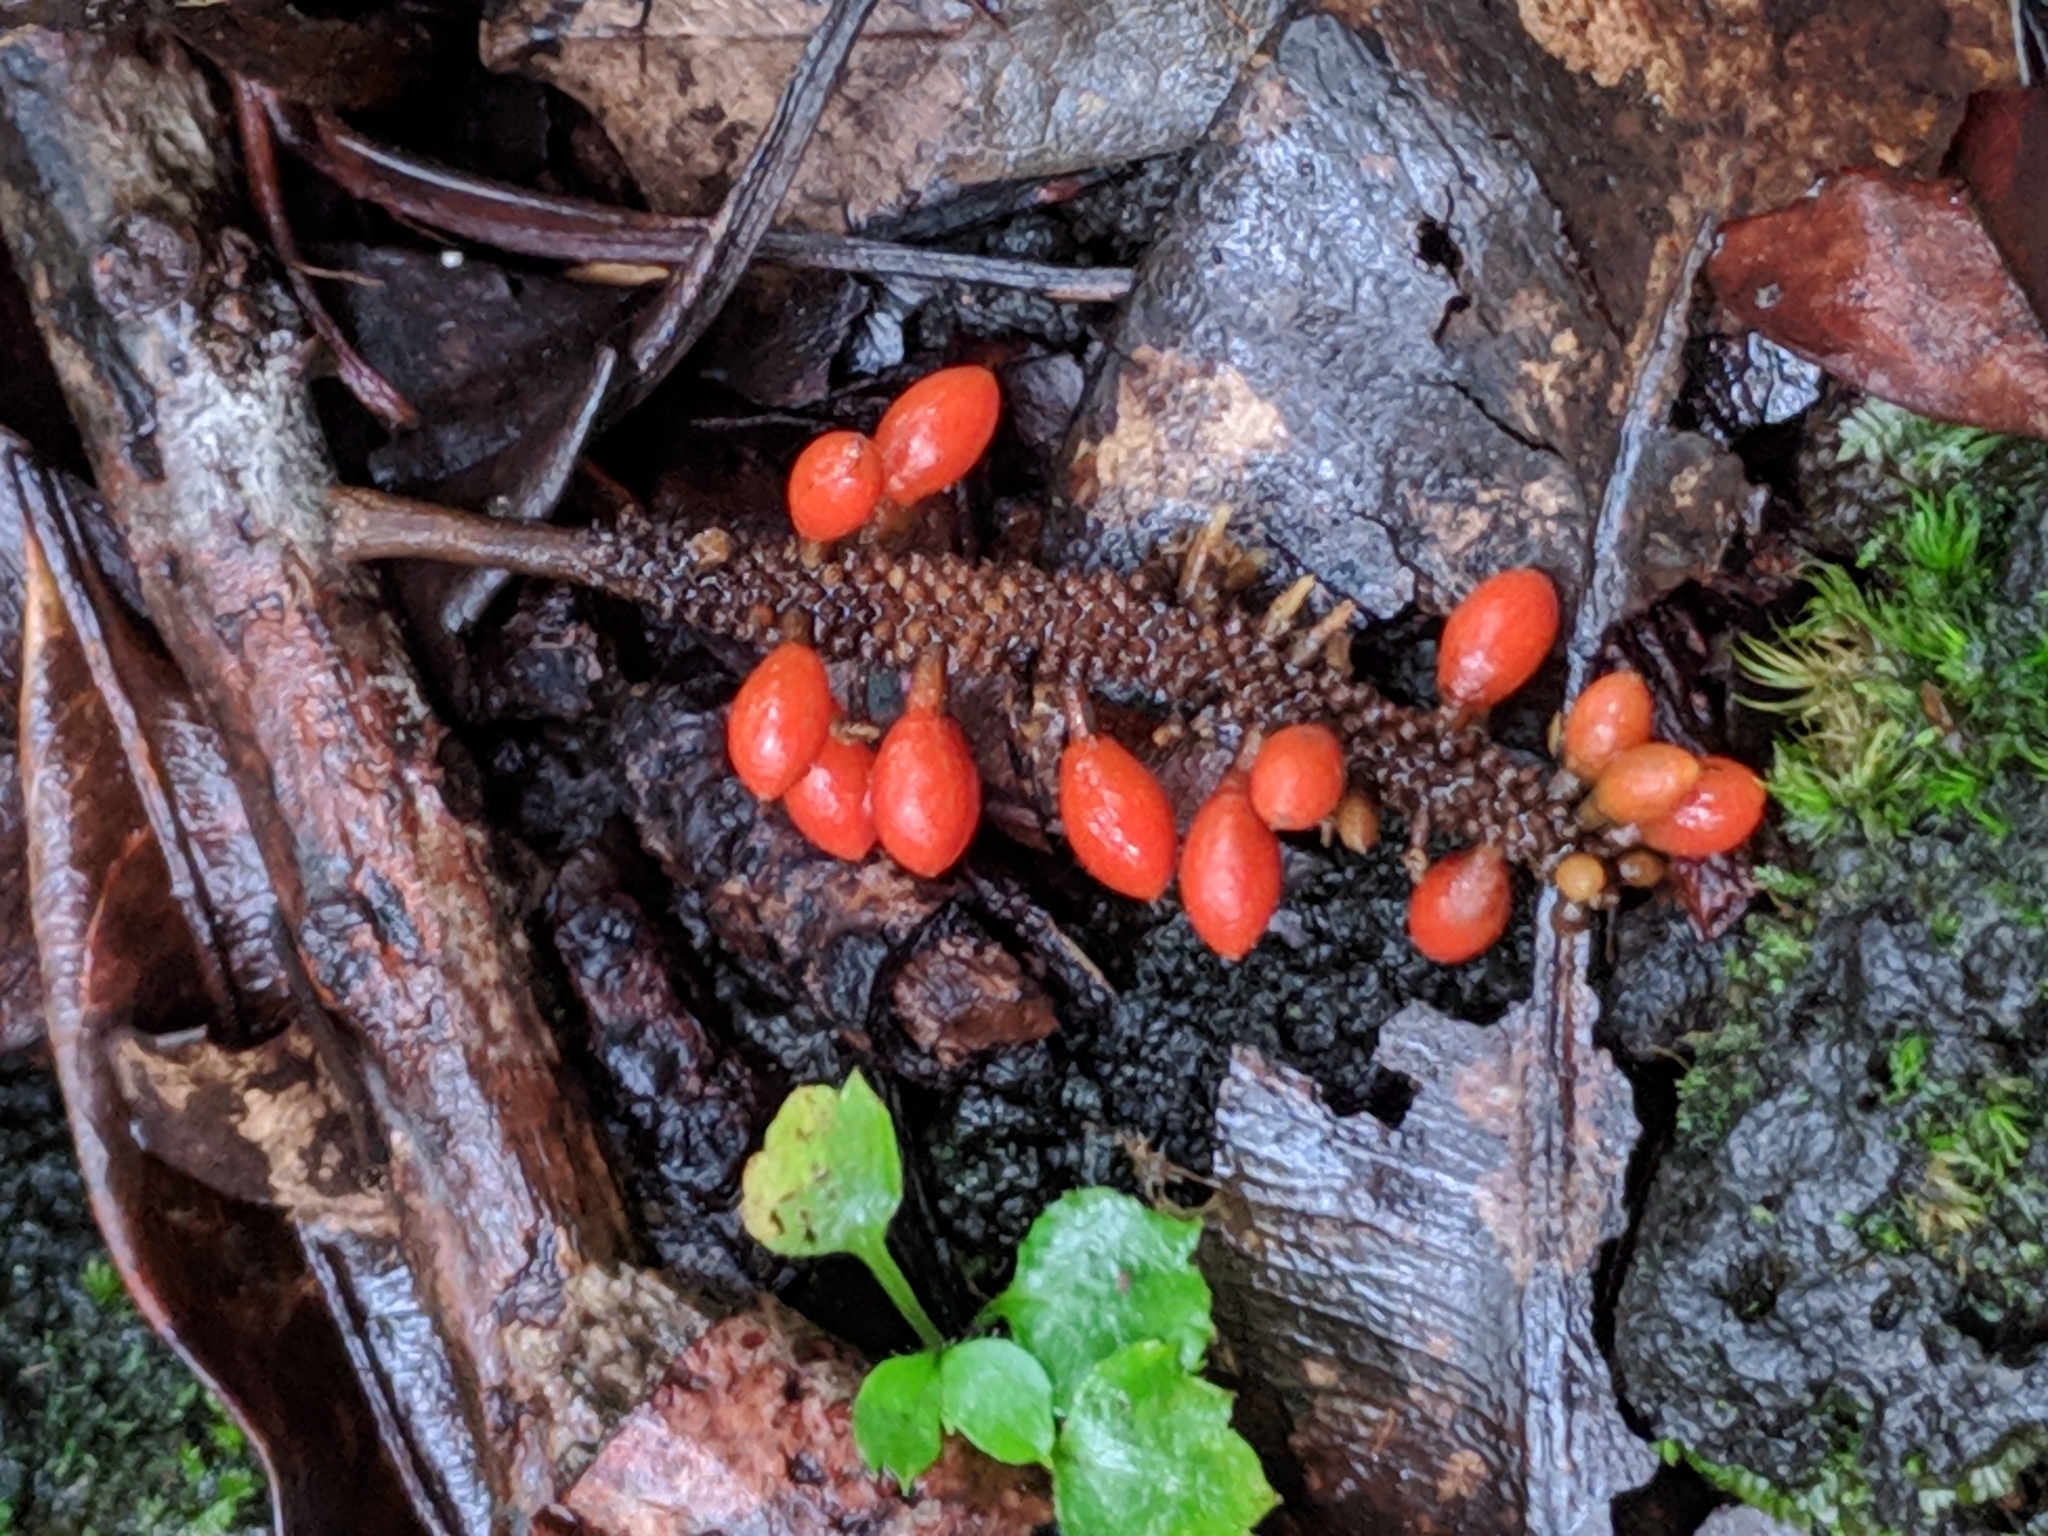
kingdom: Plantae
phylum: Tracheophyta
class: Magnoliopsida
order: Piperales
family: Piperaceae
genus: Piper
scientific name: Piper borbonense
